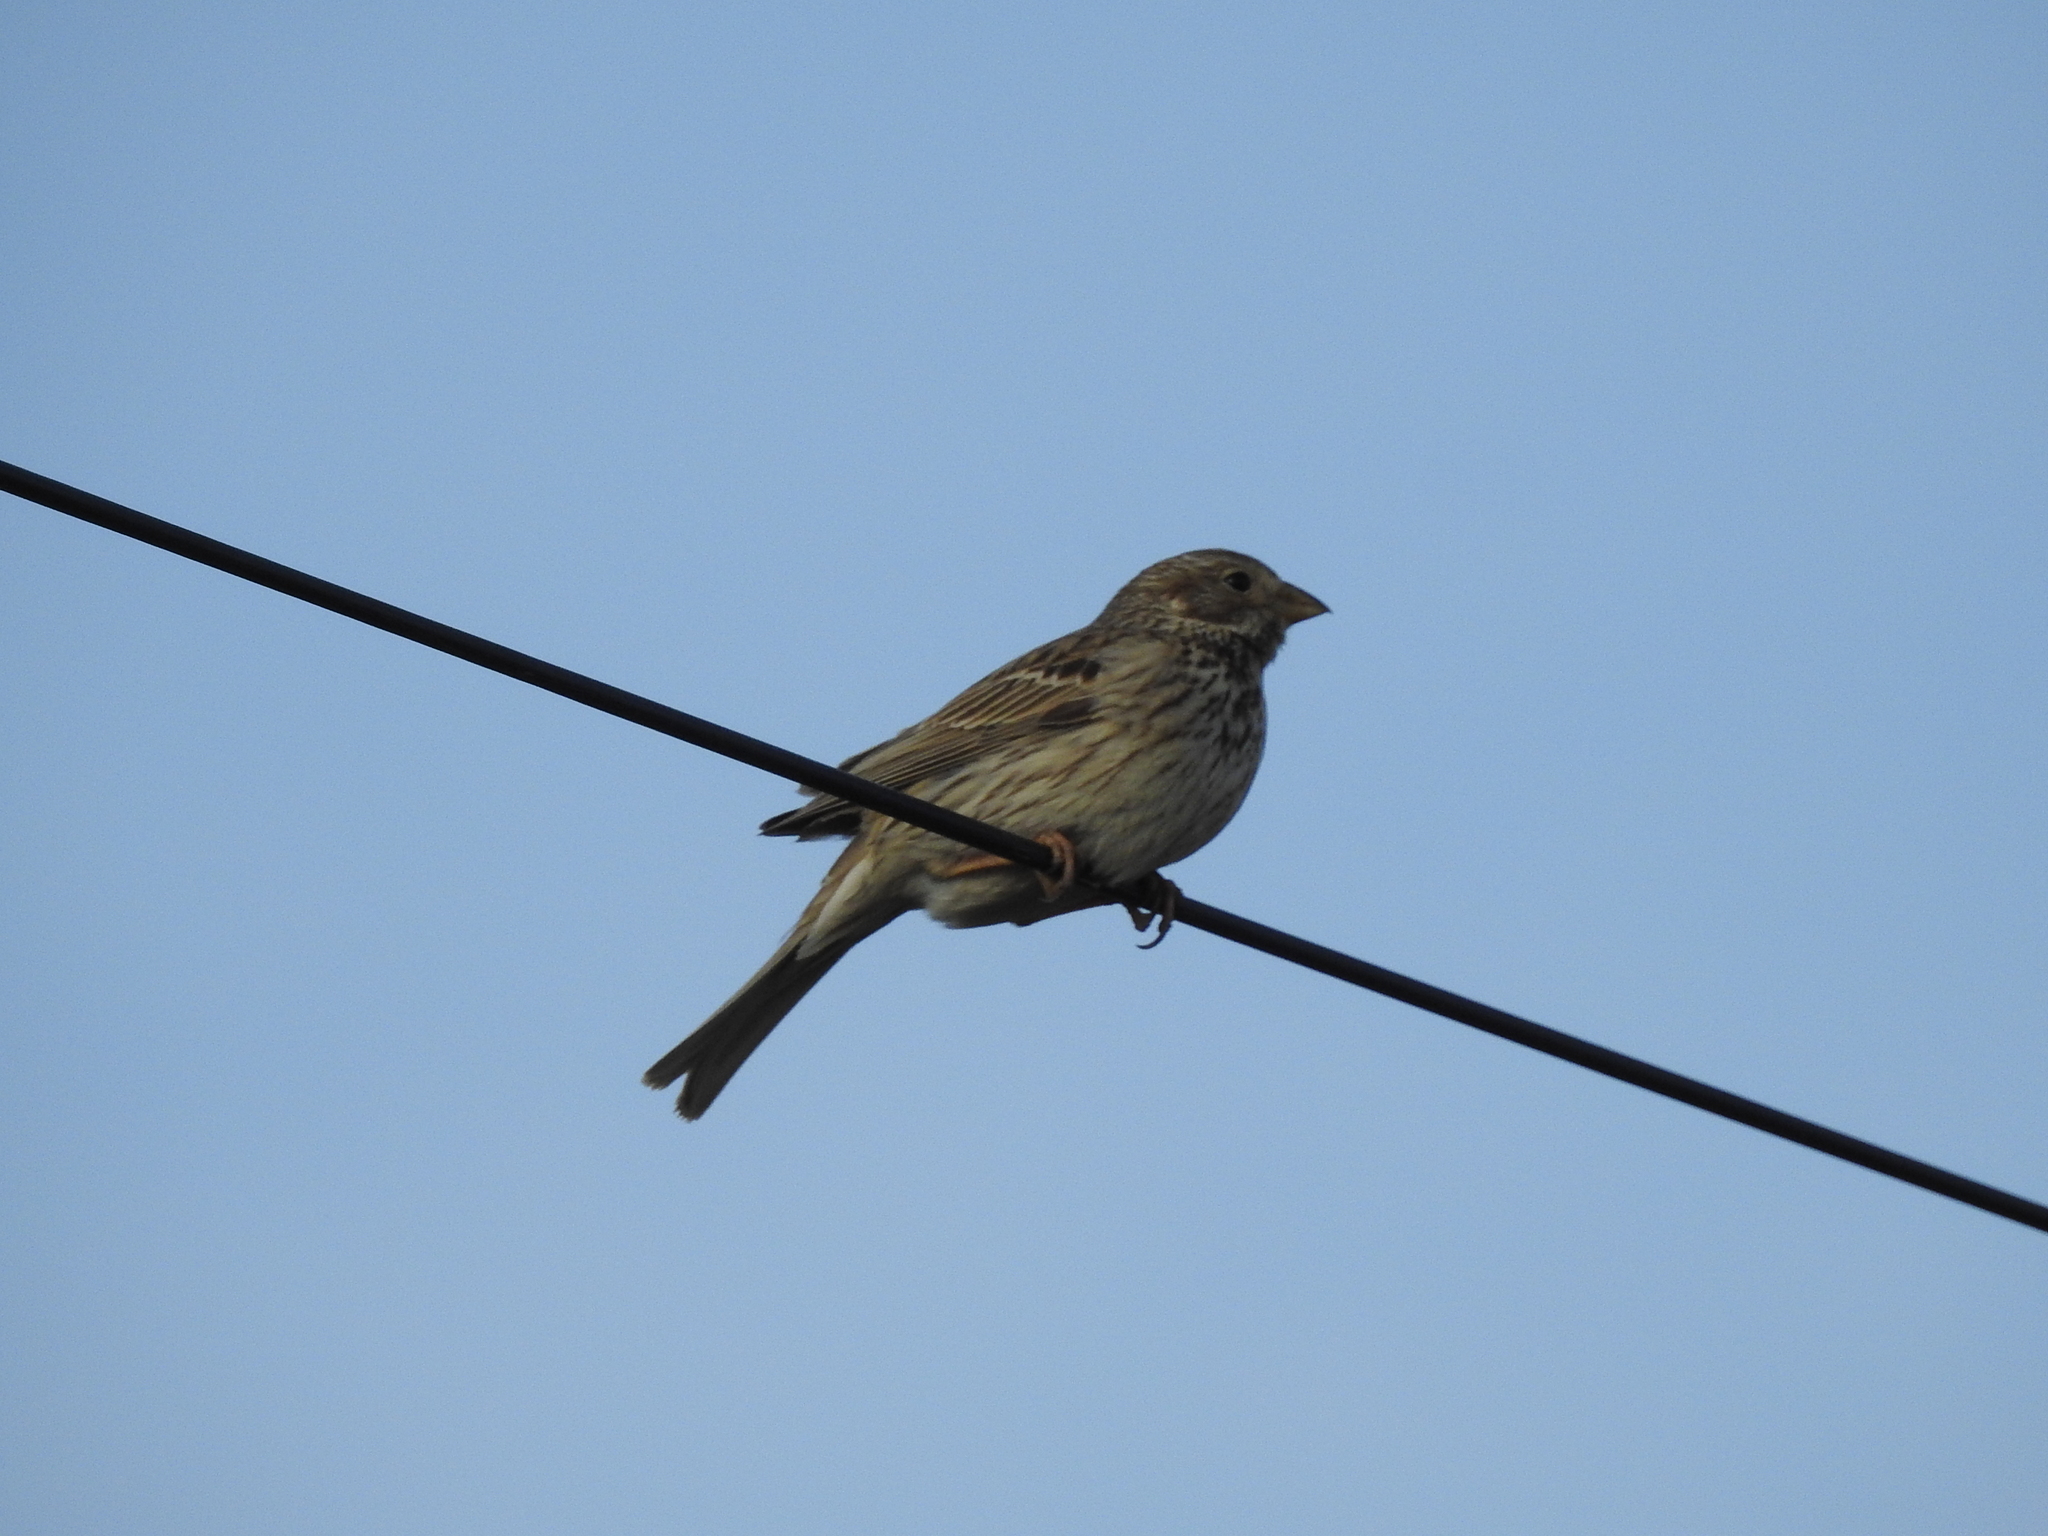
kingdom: Animalia
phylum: Chordata
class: Aves
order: Passeriformes
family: Emberizidae
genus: Emberiza
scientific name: Emberiza calandra
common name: Corn bunting
